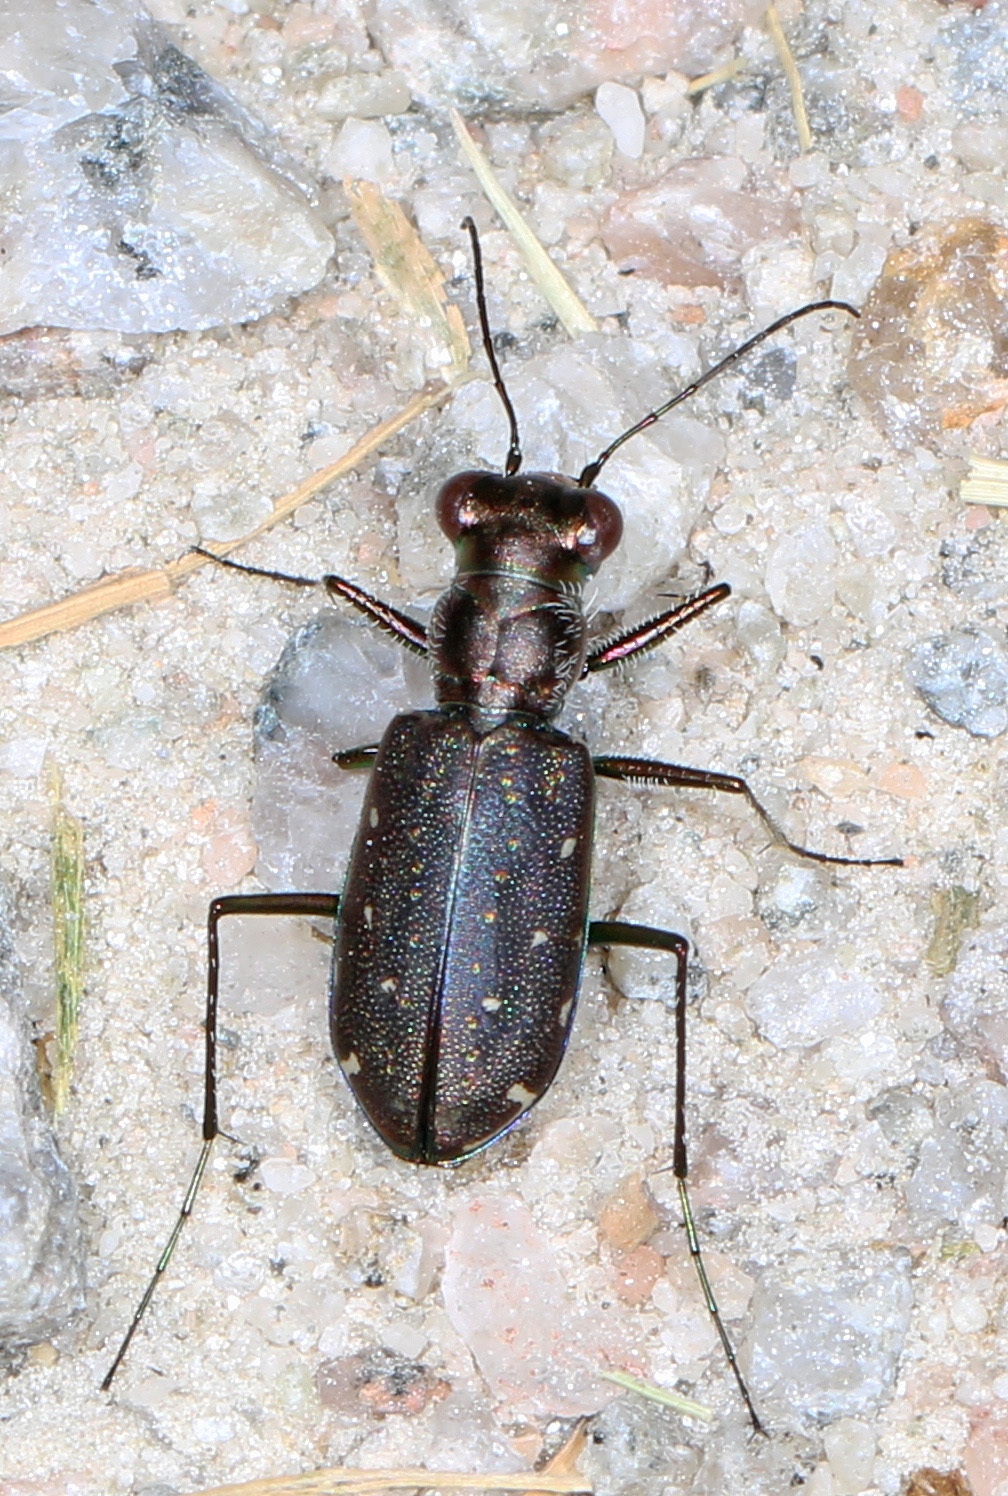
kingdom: Animalia
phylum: Arthropoda
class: Insecta
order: Coleoptera
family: Carabidae
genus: Cicindela
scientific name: Cicindela punctulata
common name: Punctured tiger beetle
